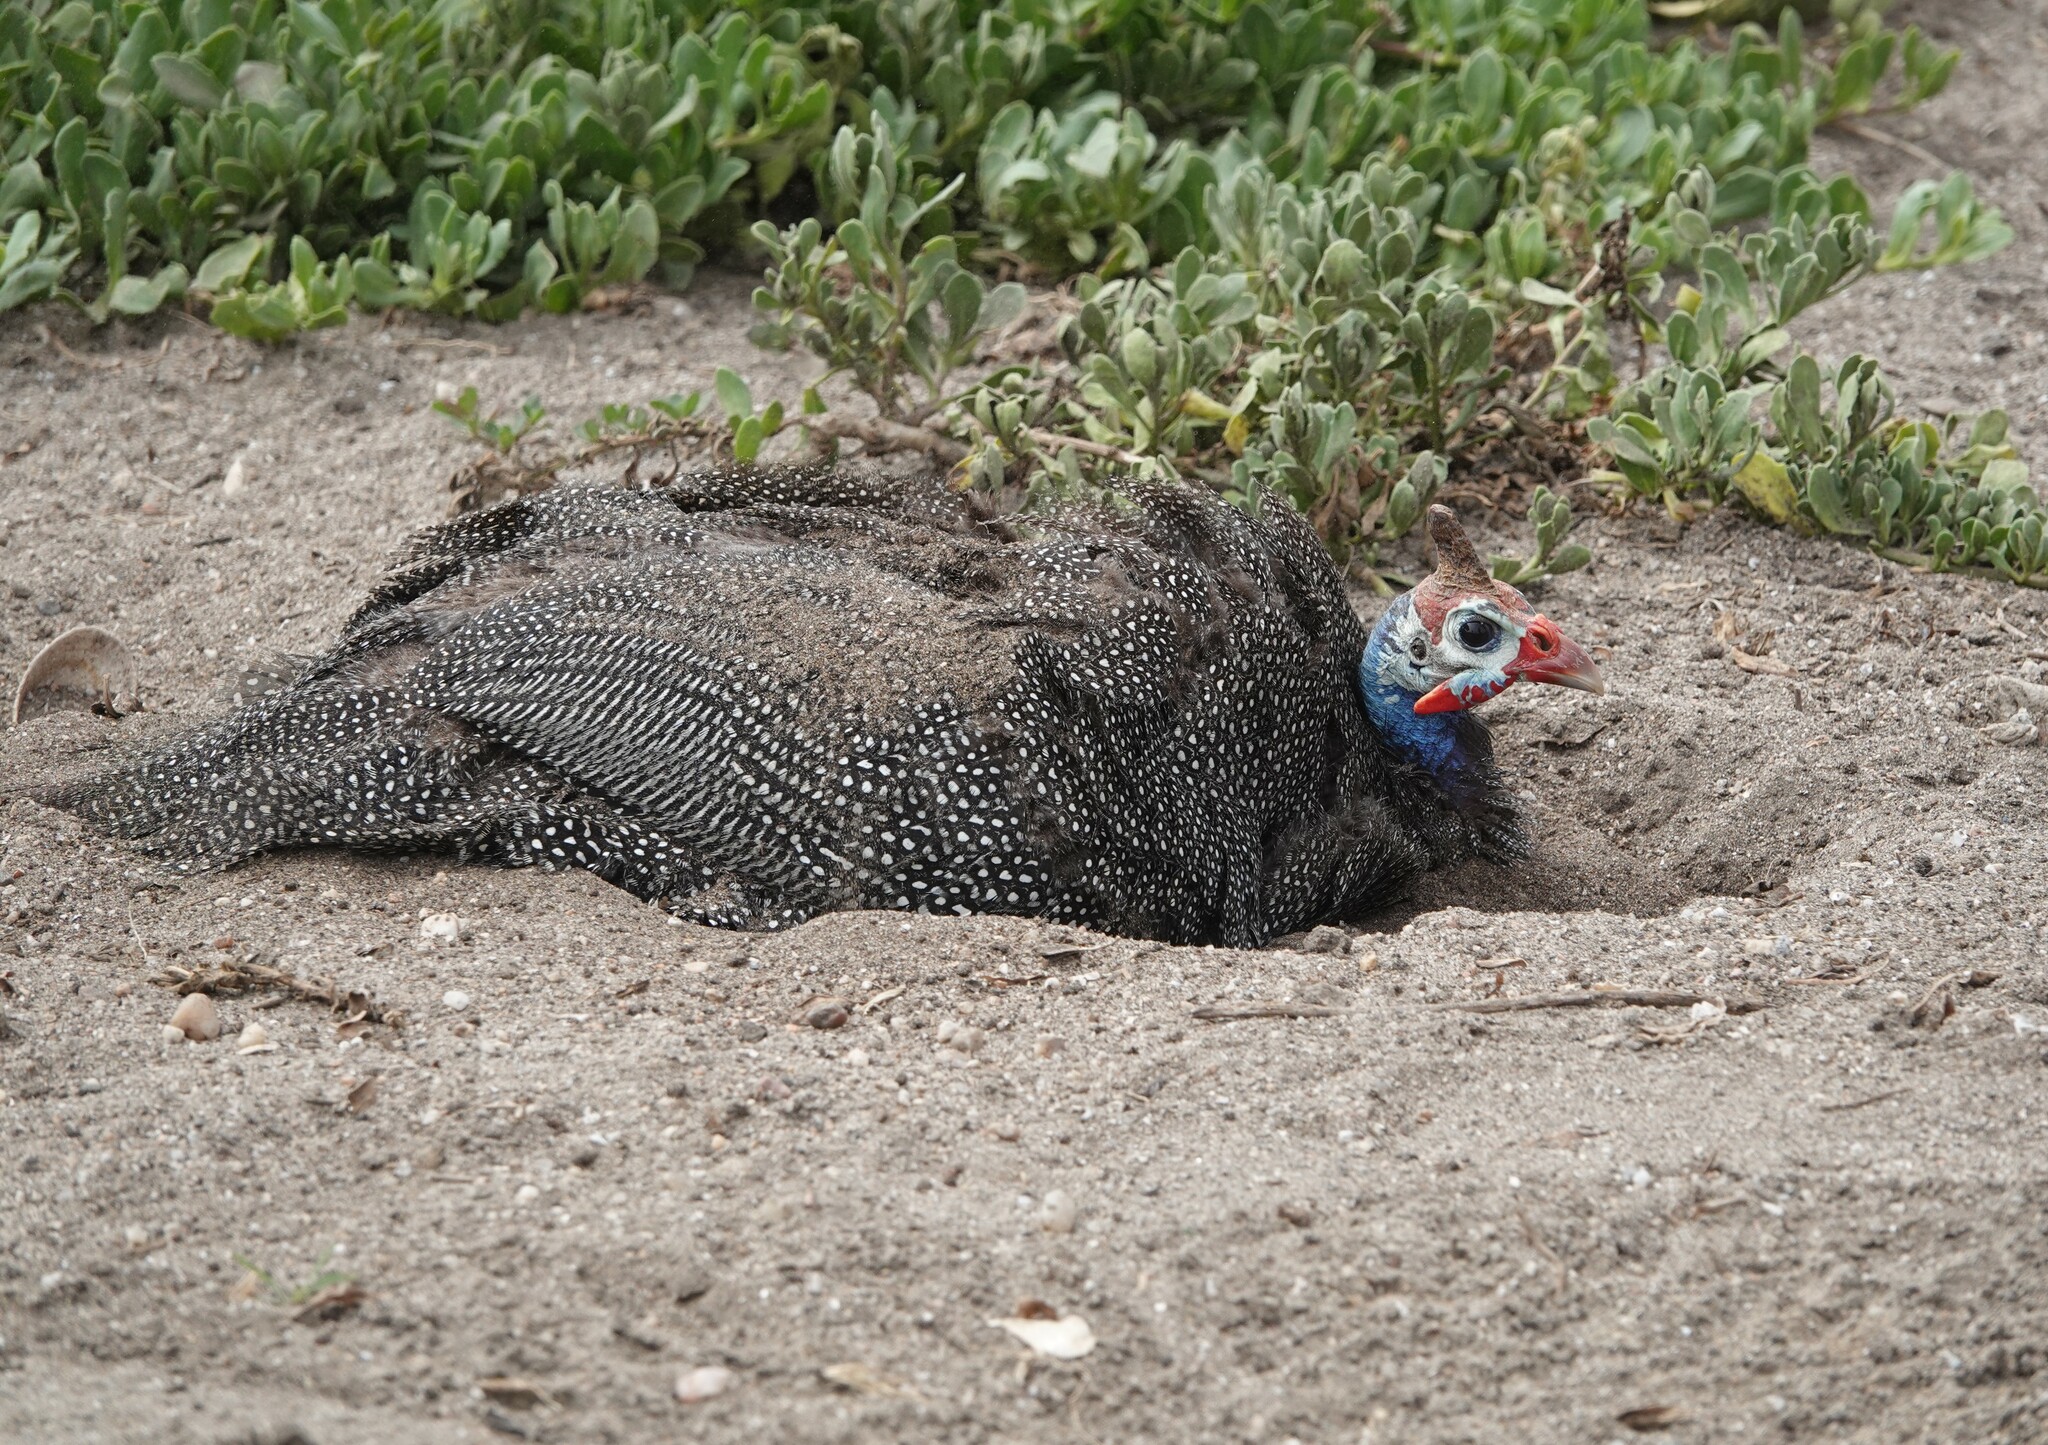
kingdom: Animalia
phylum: Chordata
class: Aves
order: Galliformes
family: Numididae
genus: Numida
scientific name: Numida meleagris
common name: Helmeted guineafowl
